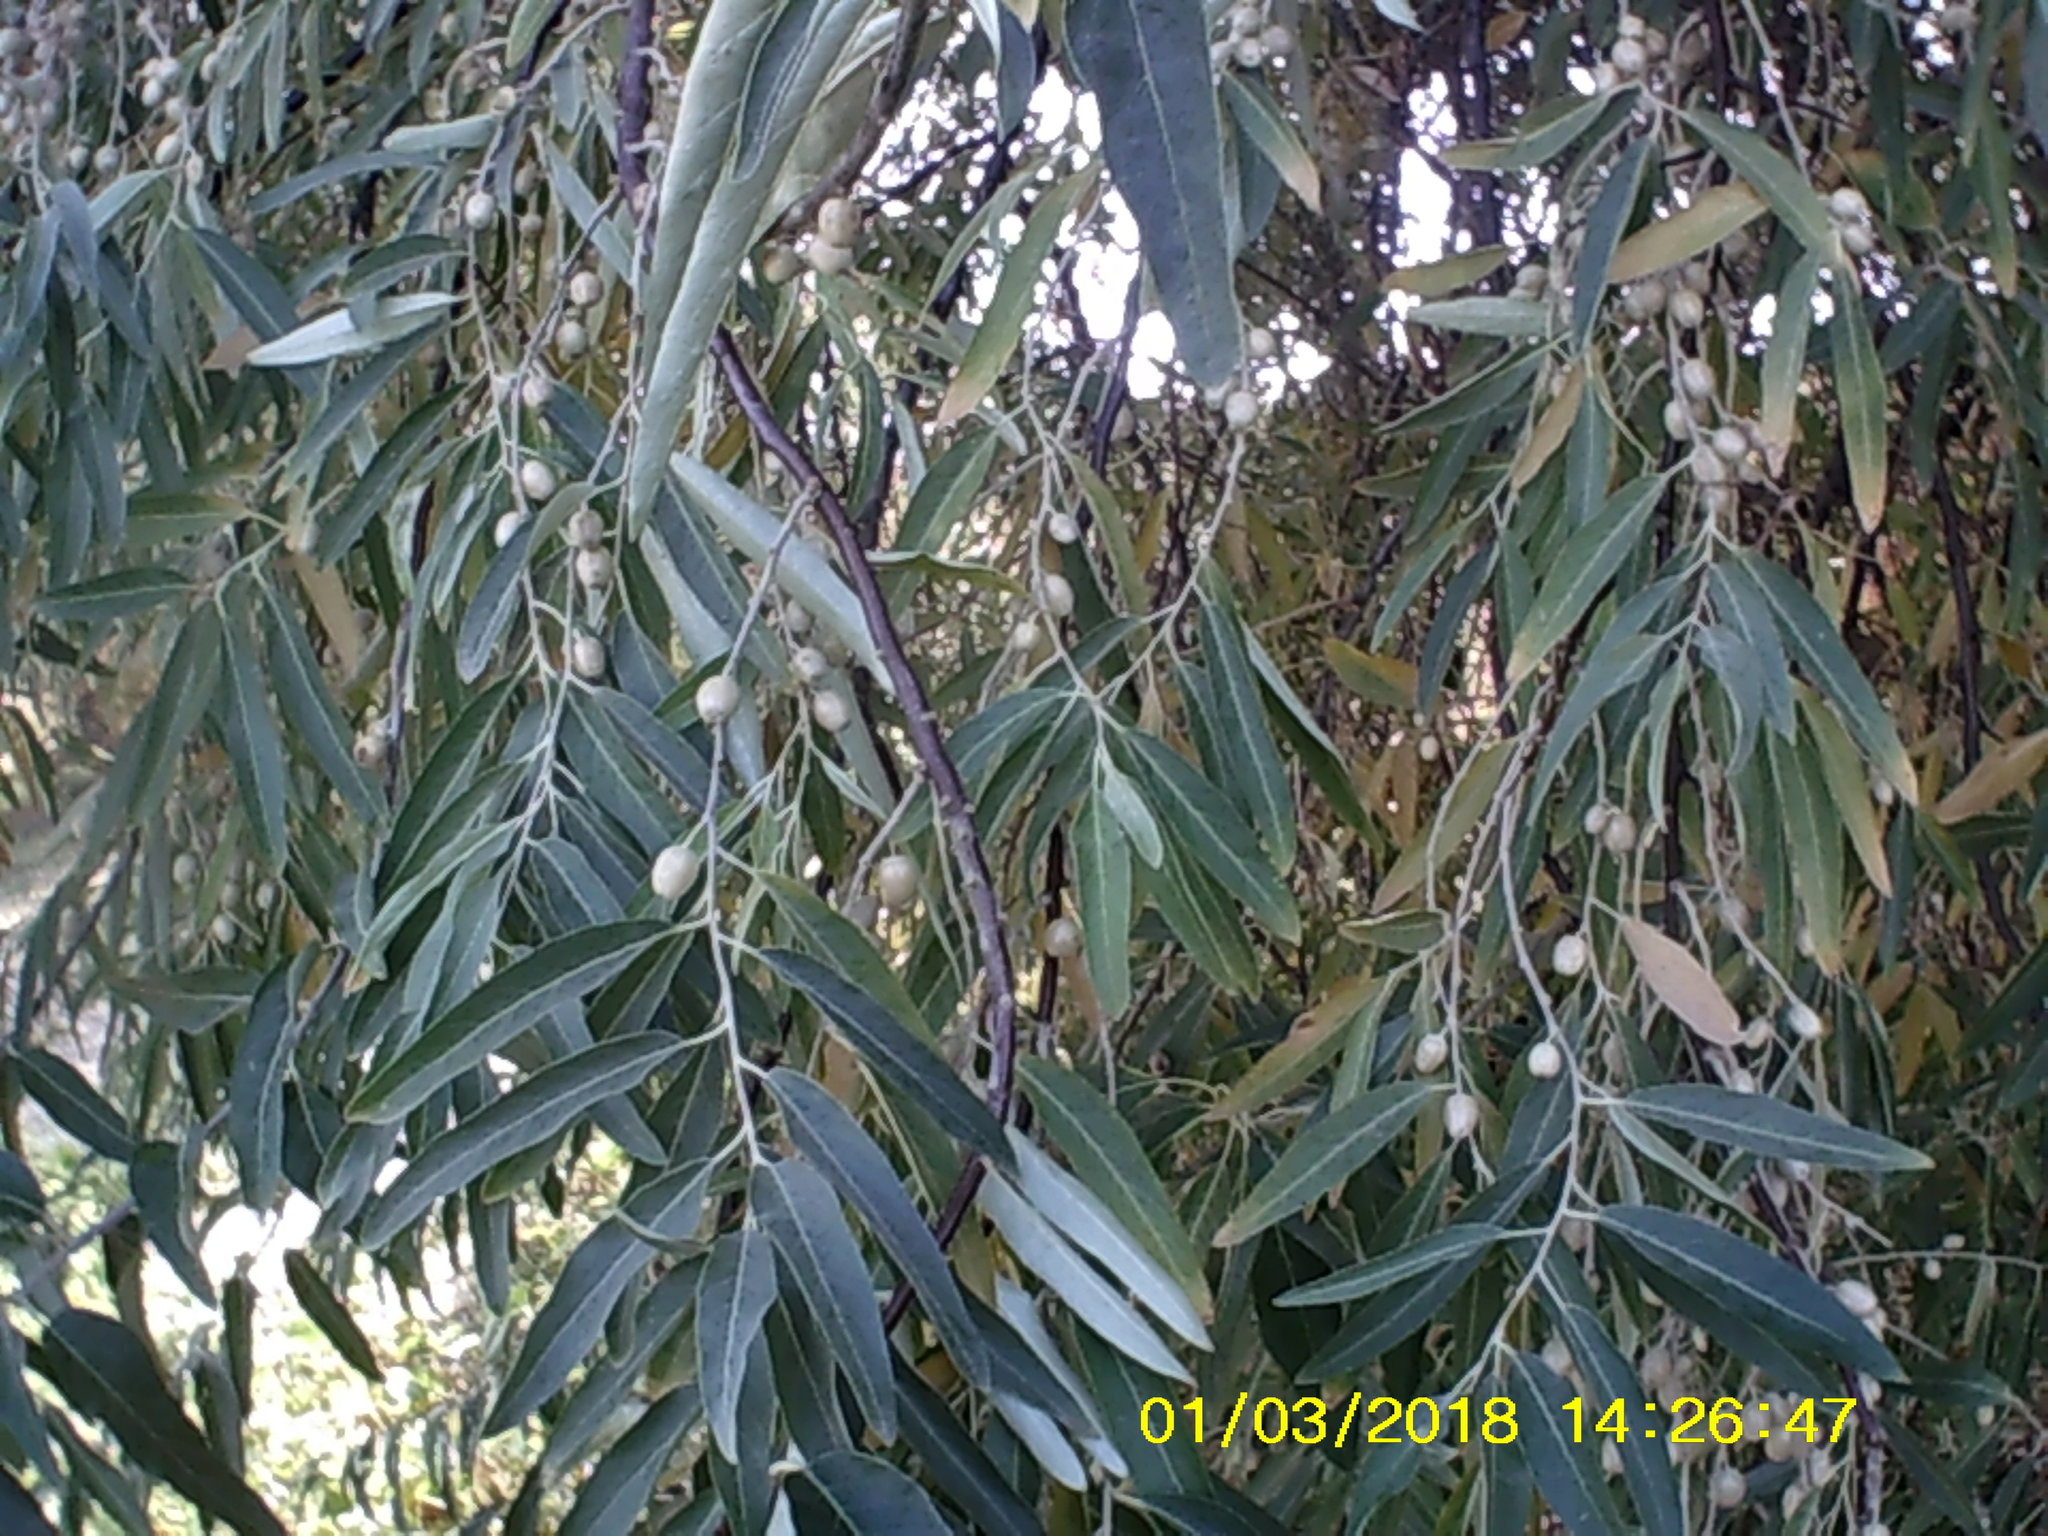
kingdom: Plantae
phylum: Tracheophyta
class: Magnoliopsida
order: Rosales
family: Elaeagnaceae
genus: Elaeagnus
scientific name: Elaeagnus angustifolia
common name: Russian olive
